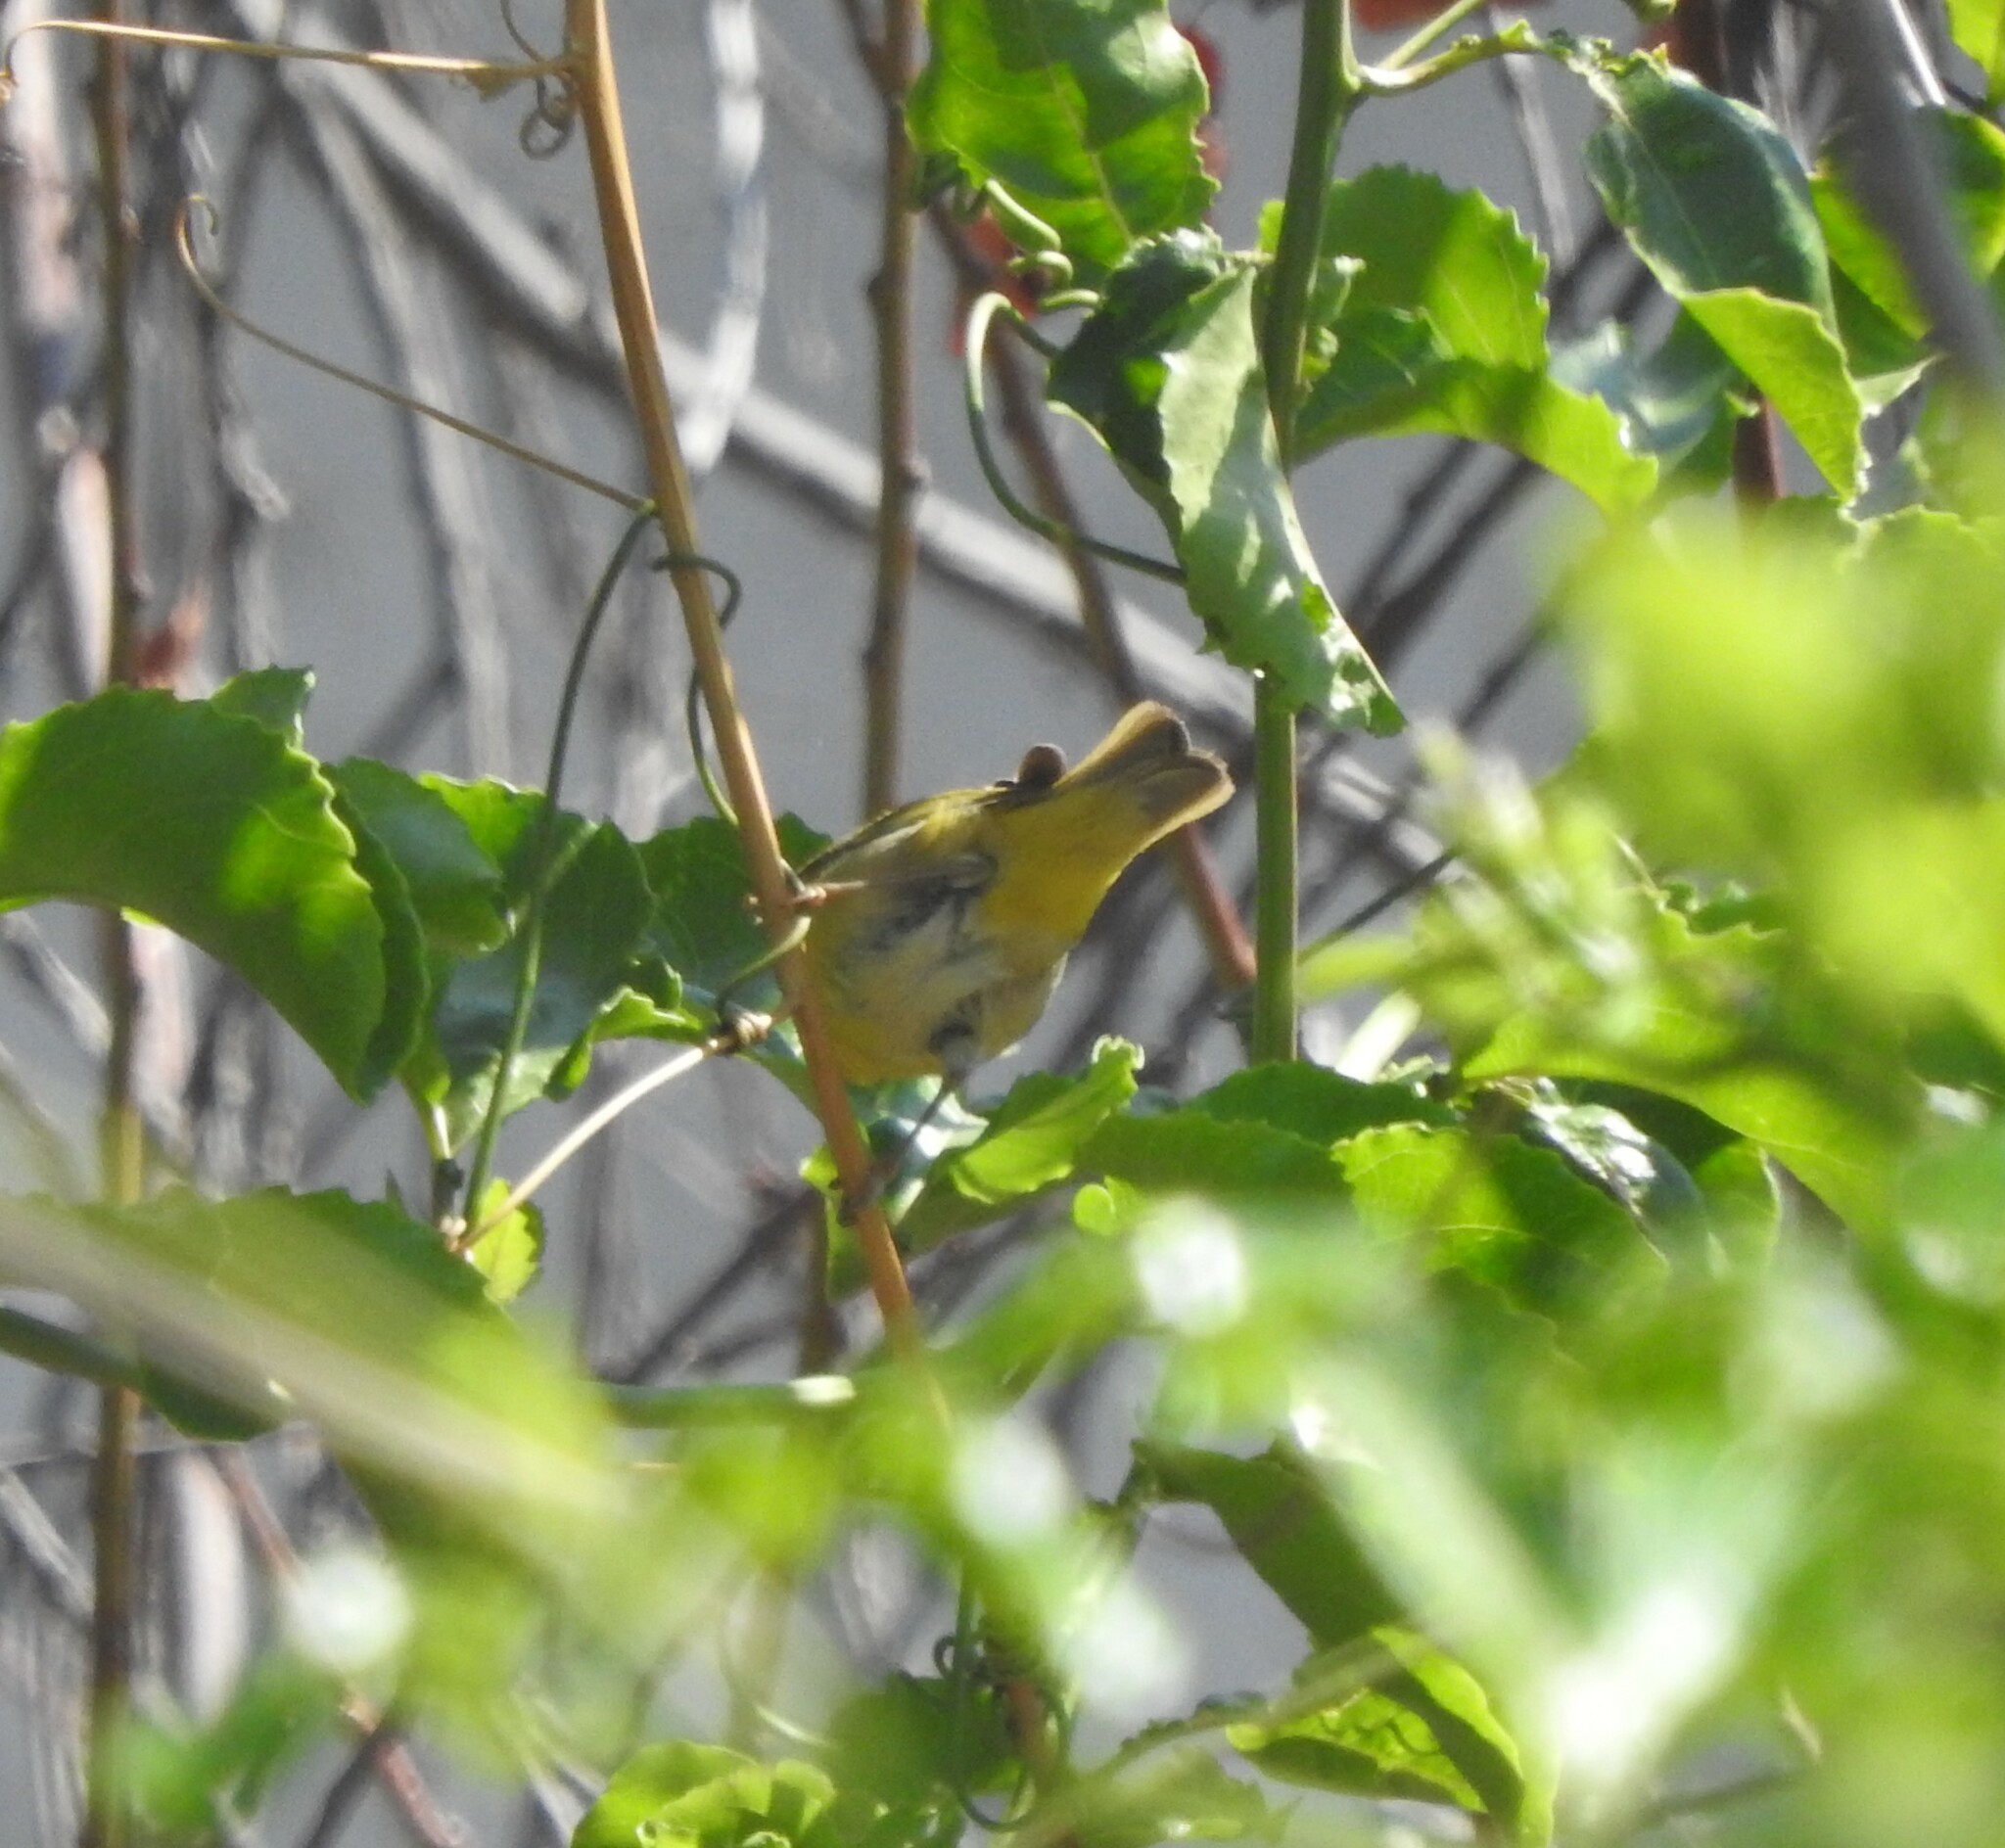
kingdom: Animalia
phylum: Chordata
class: Aves
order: Passeriformes
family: Parulidae
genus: Leiothlypis
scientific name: Leiothlypis ruficapilla
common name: Nashville warbler
